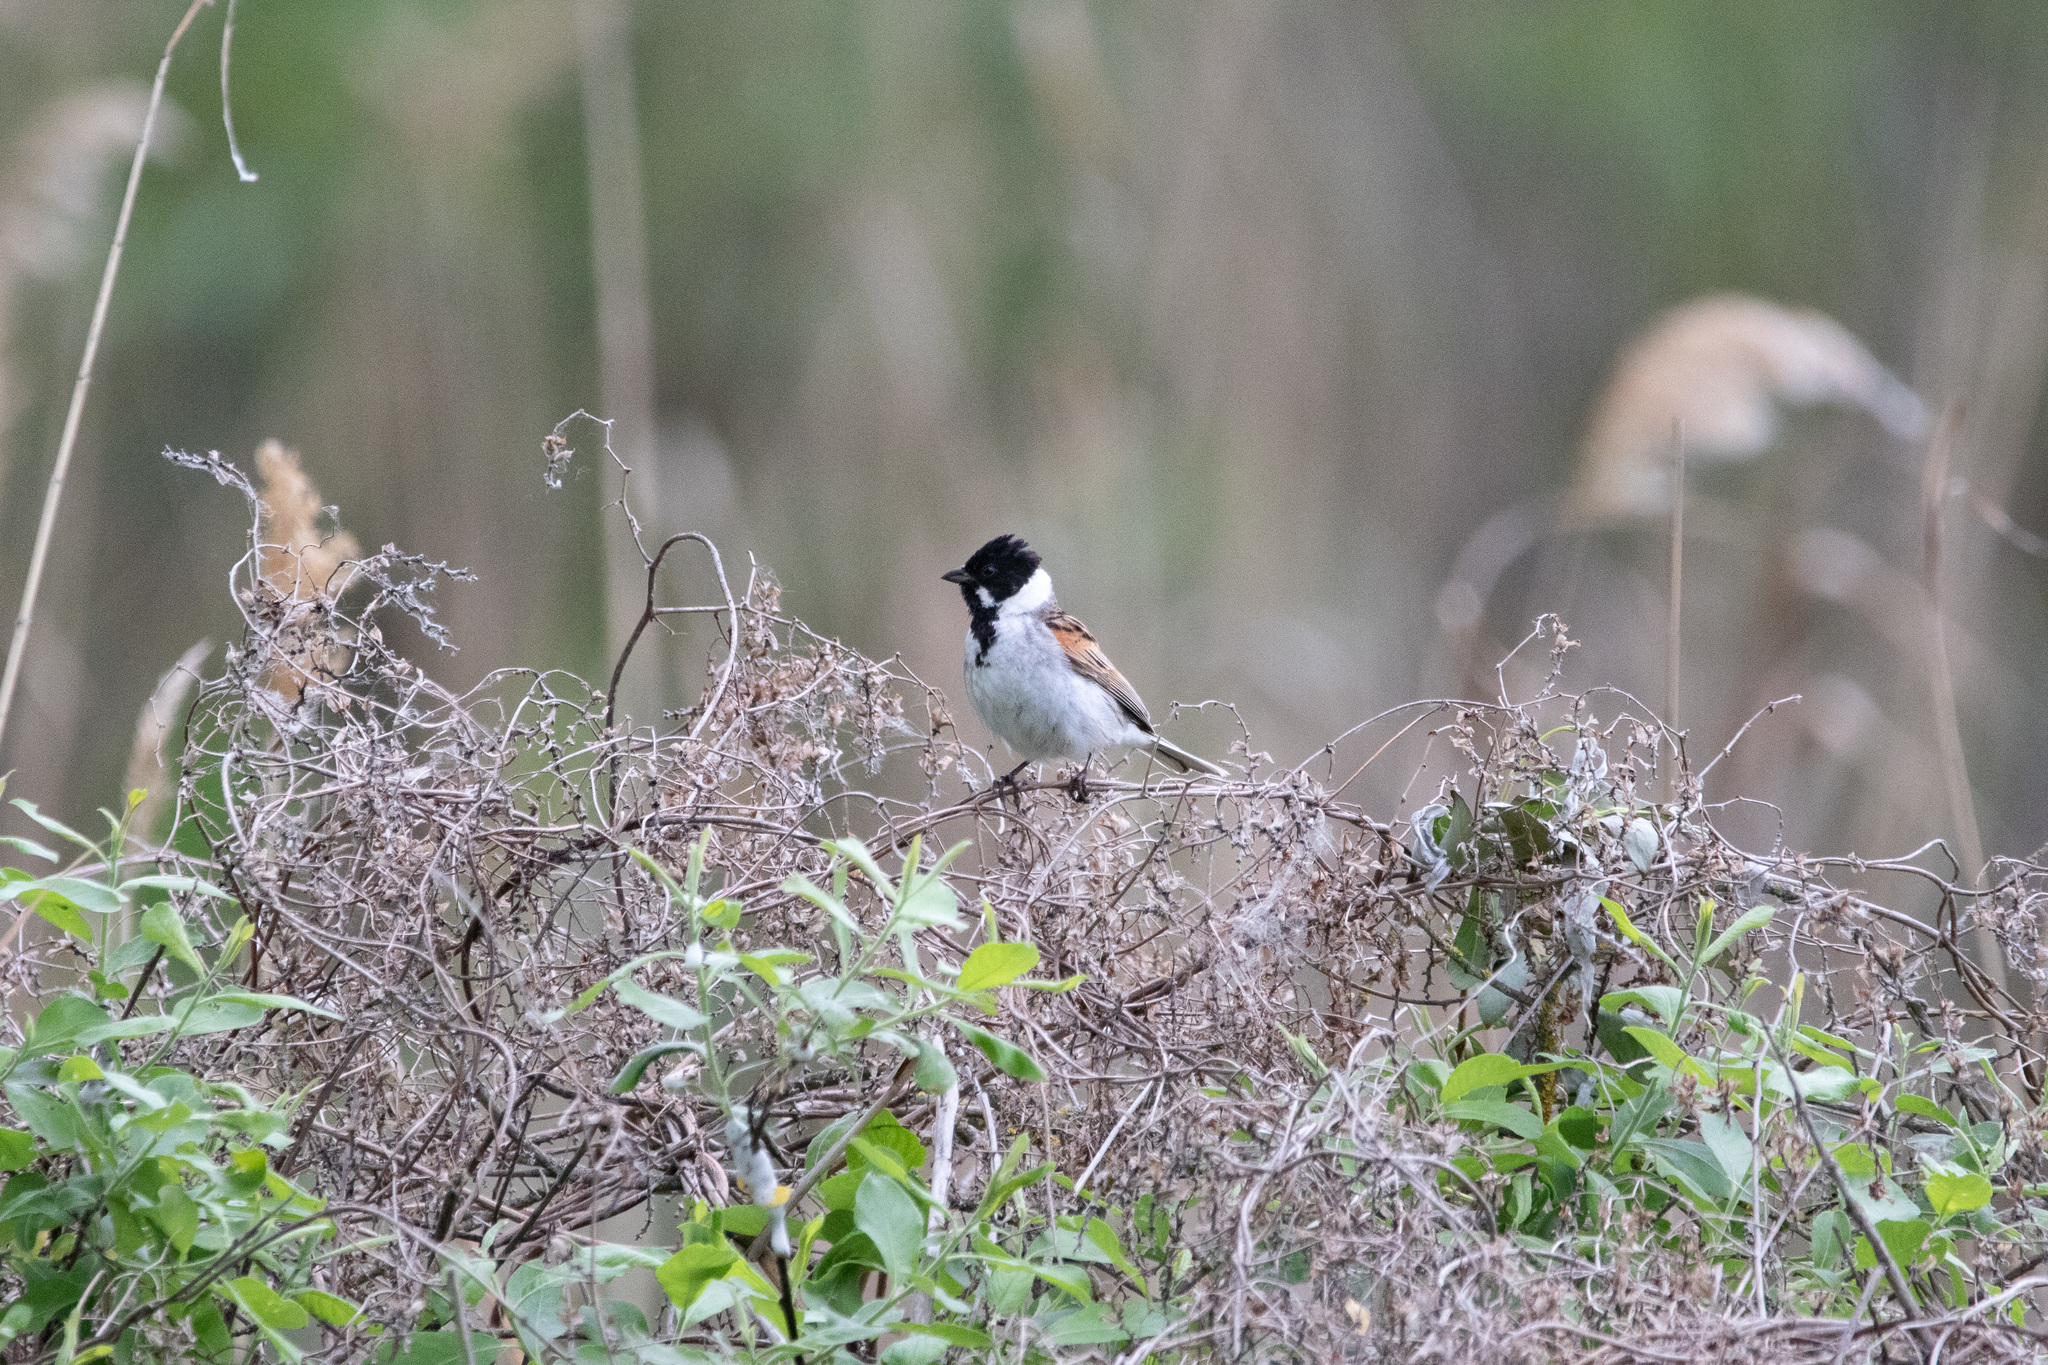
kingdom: Animalia
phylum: Chordata
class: Aves
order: Passeriformes
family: Emberizidae
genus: Emberiza
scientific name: Emberiza schoeniclus
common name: Reed bunting
